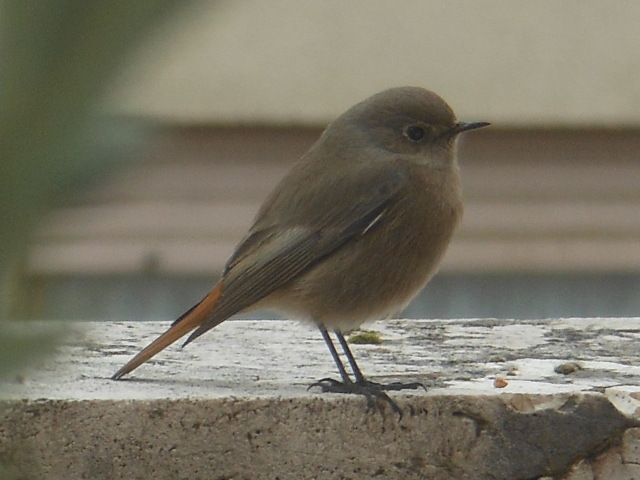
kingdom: Animalia
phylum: Chordata
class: Aves
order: Passeriformes
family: Muscicapidae
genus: Phoenicurus
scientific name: Phoenicurus ochruros
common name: Black redstart
